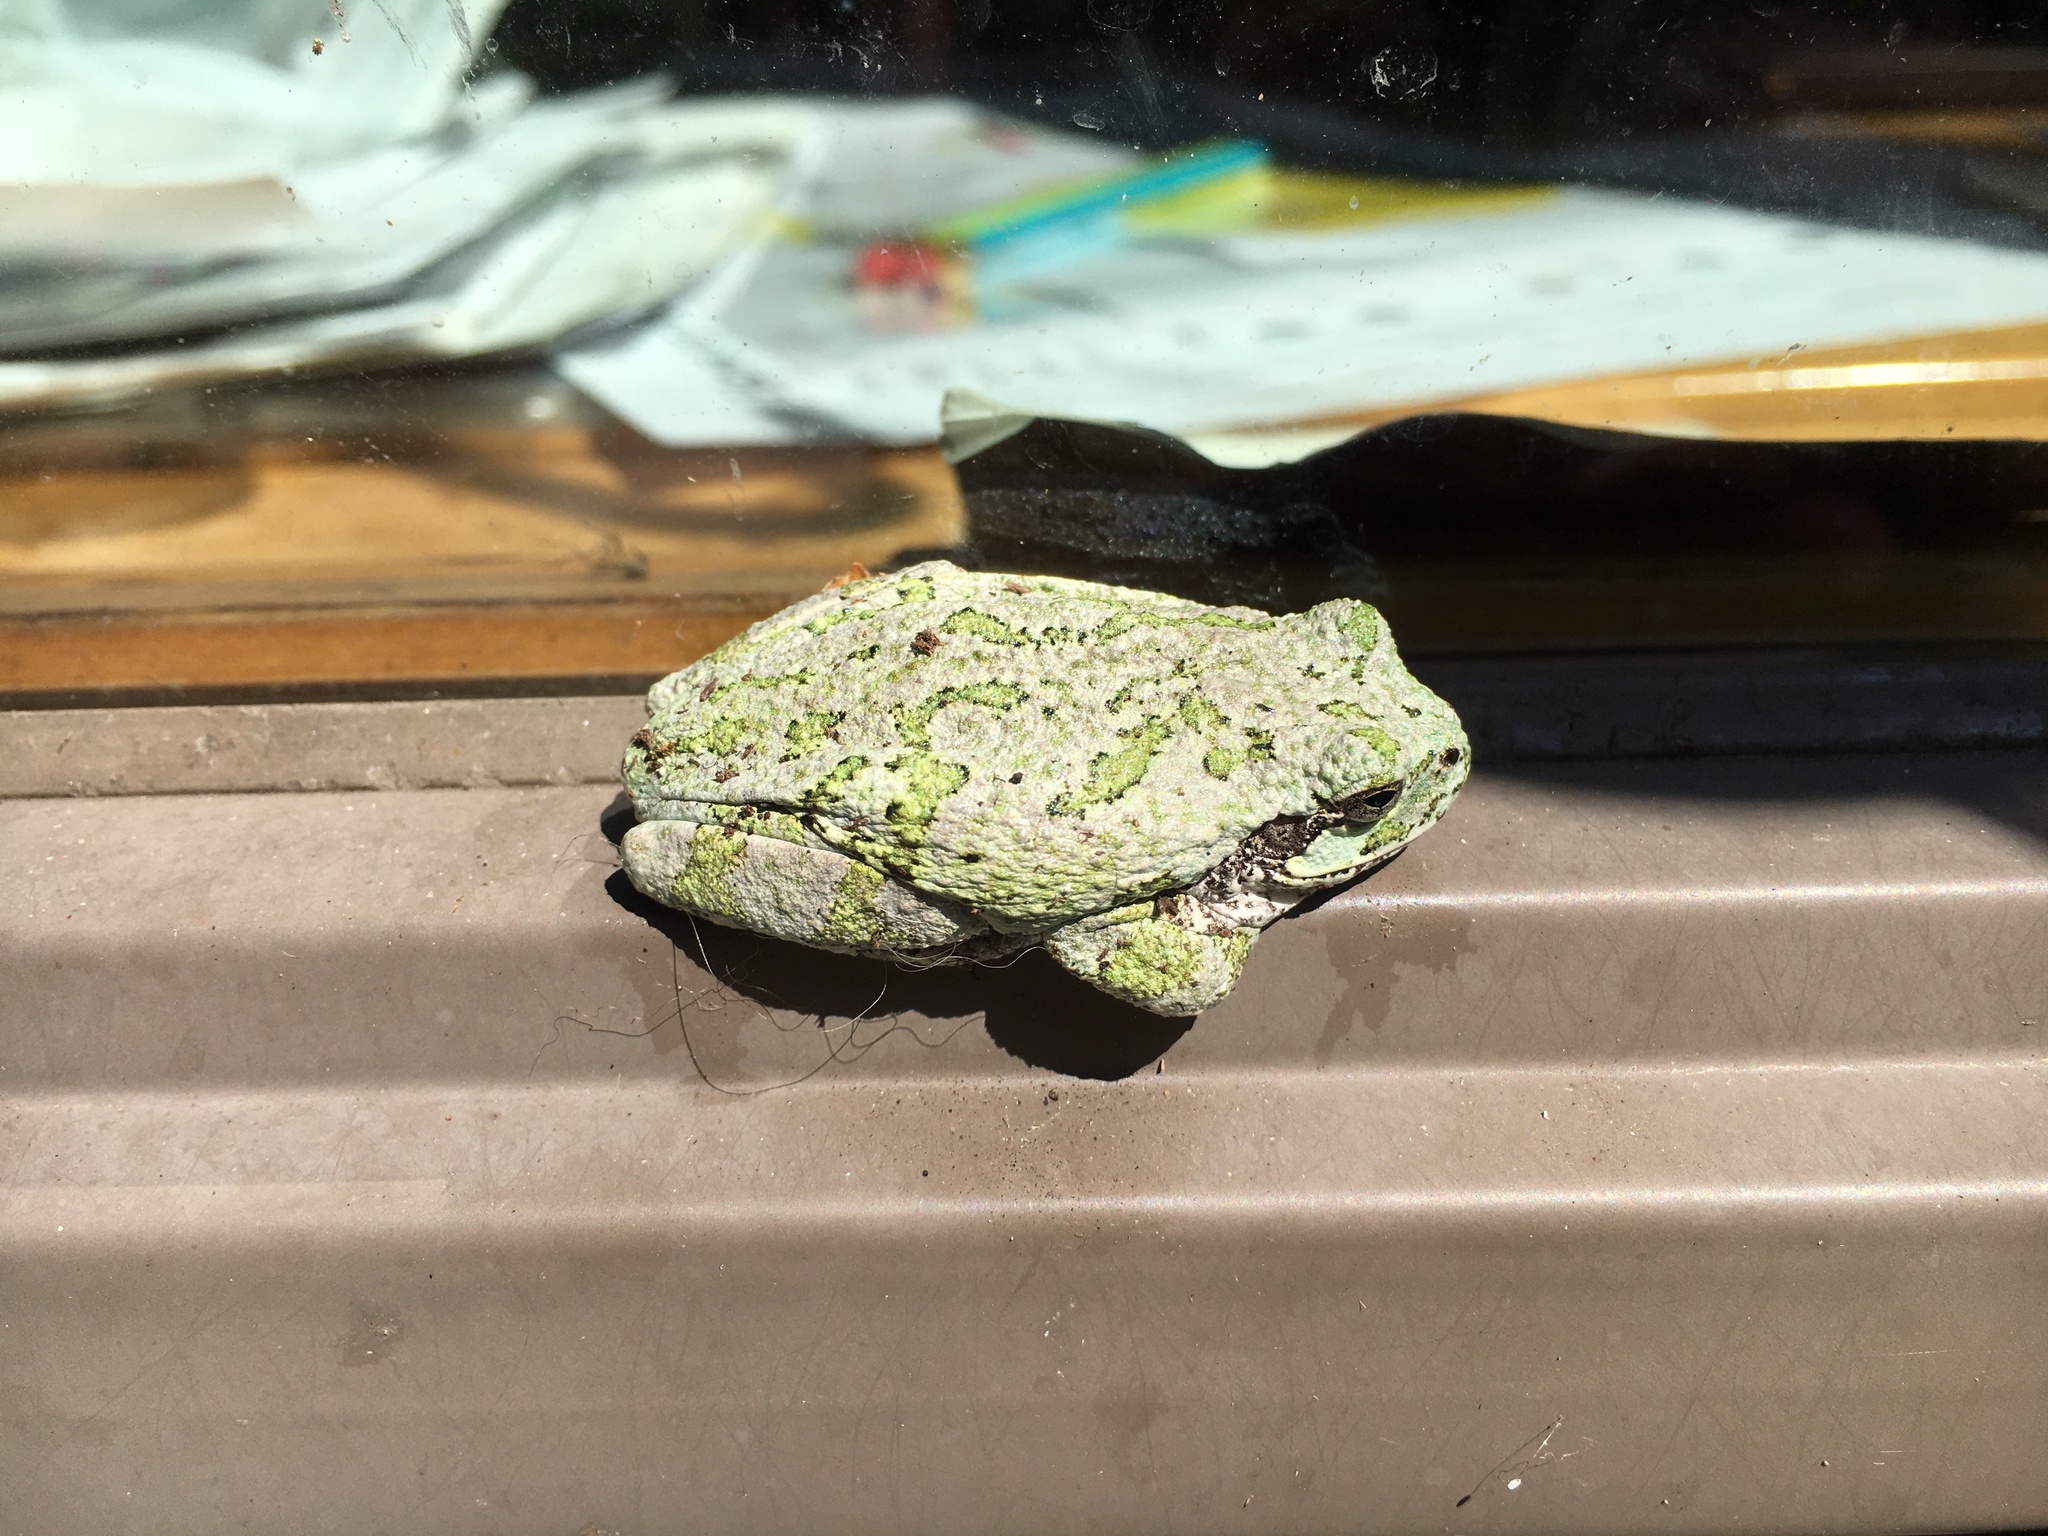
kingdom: Animalia
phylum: Chordata
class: Amphibia
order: Anura
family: Hylidae
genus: Hyla
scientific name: Hyla
